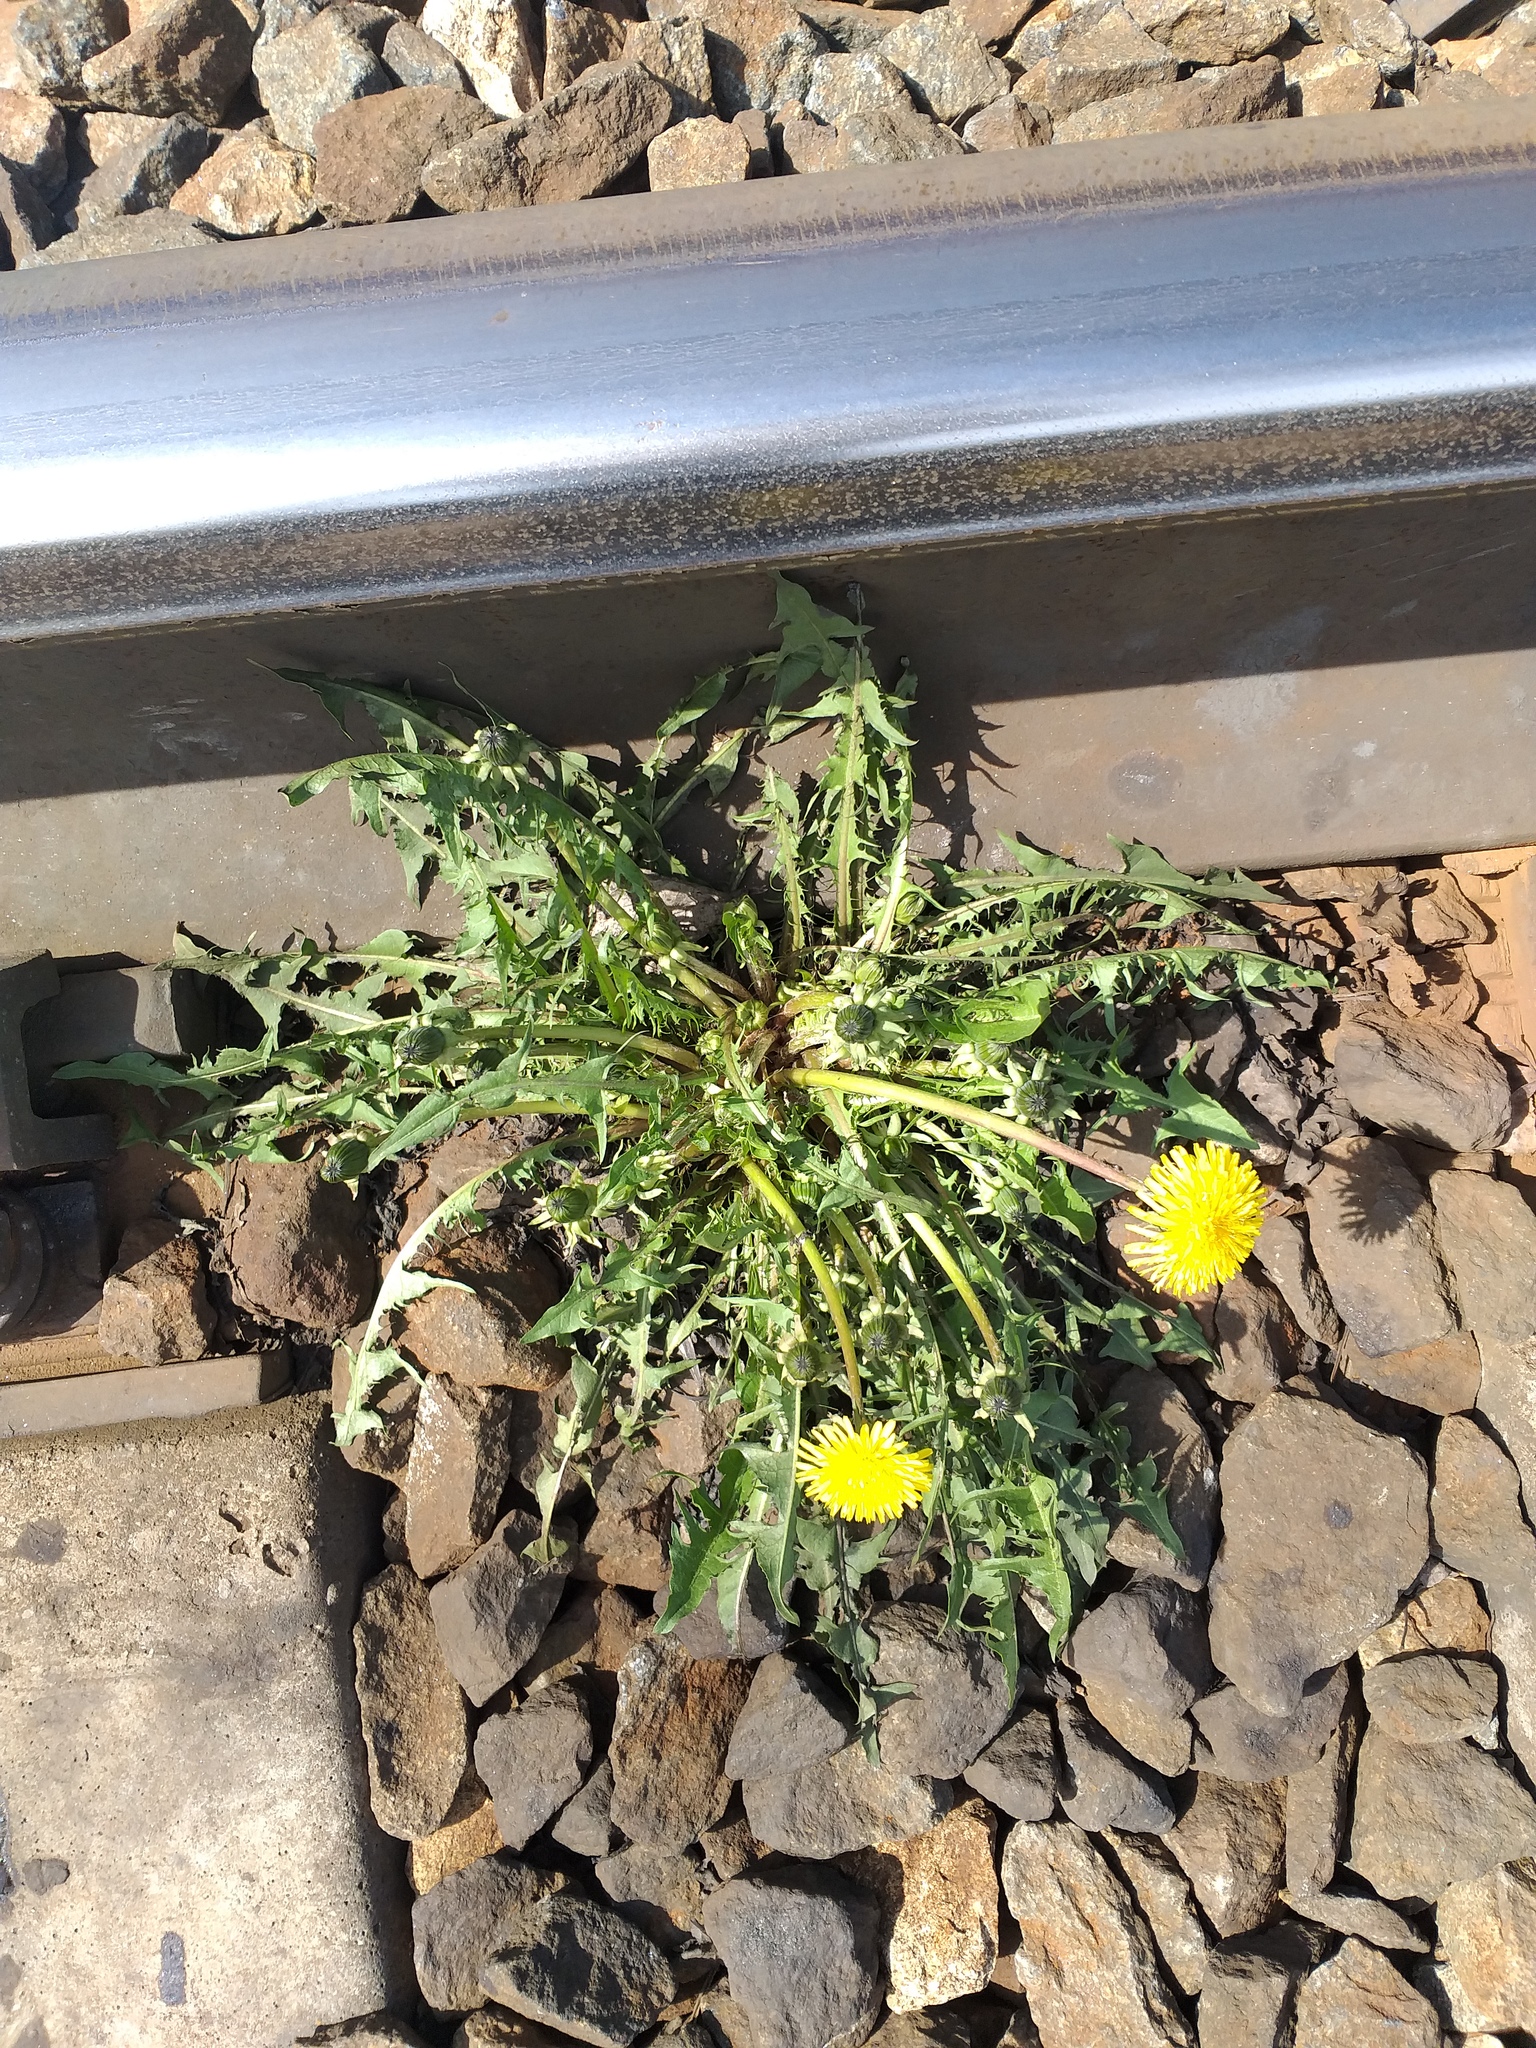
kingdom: Plantae
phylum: Tracheophyta
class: Magnoliopsida
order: Asterales
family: Asteraceae
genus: Taraxacum
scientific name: Taraxacum officinale
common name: Common dandelion
